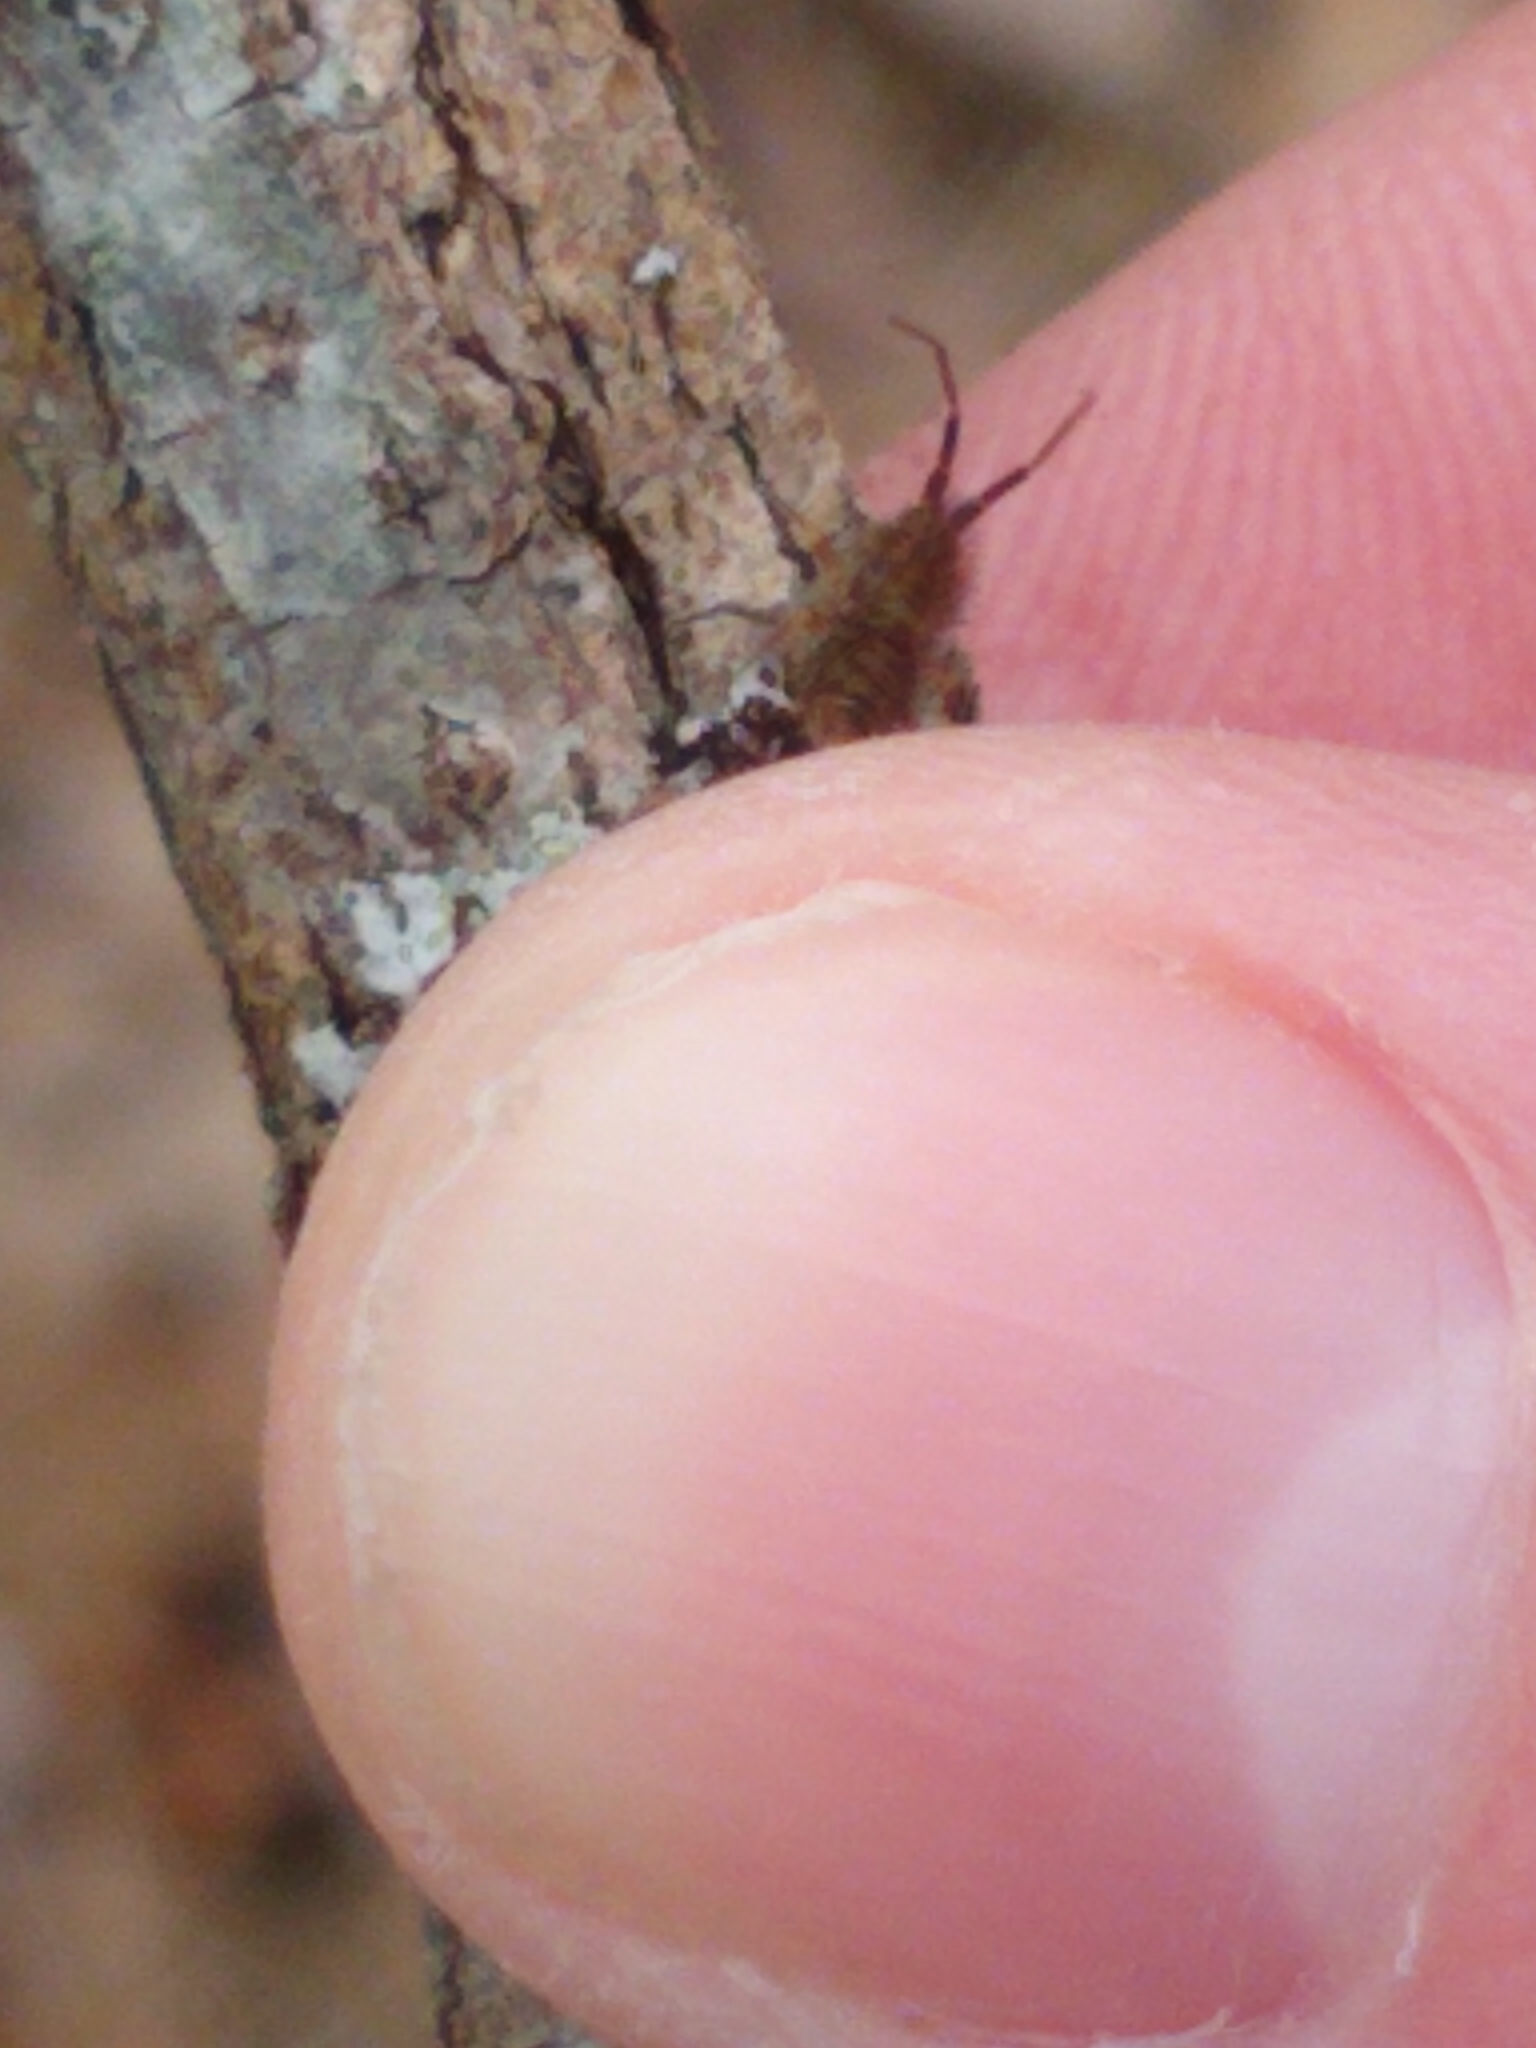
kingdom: Animalia
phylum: Arthropoda
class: Collembola
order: Entomobryomorpha
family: Orchesellidae
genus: Orchesella
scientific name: Orchesella villosa
